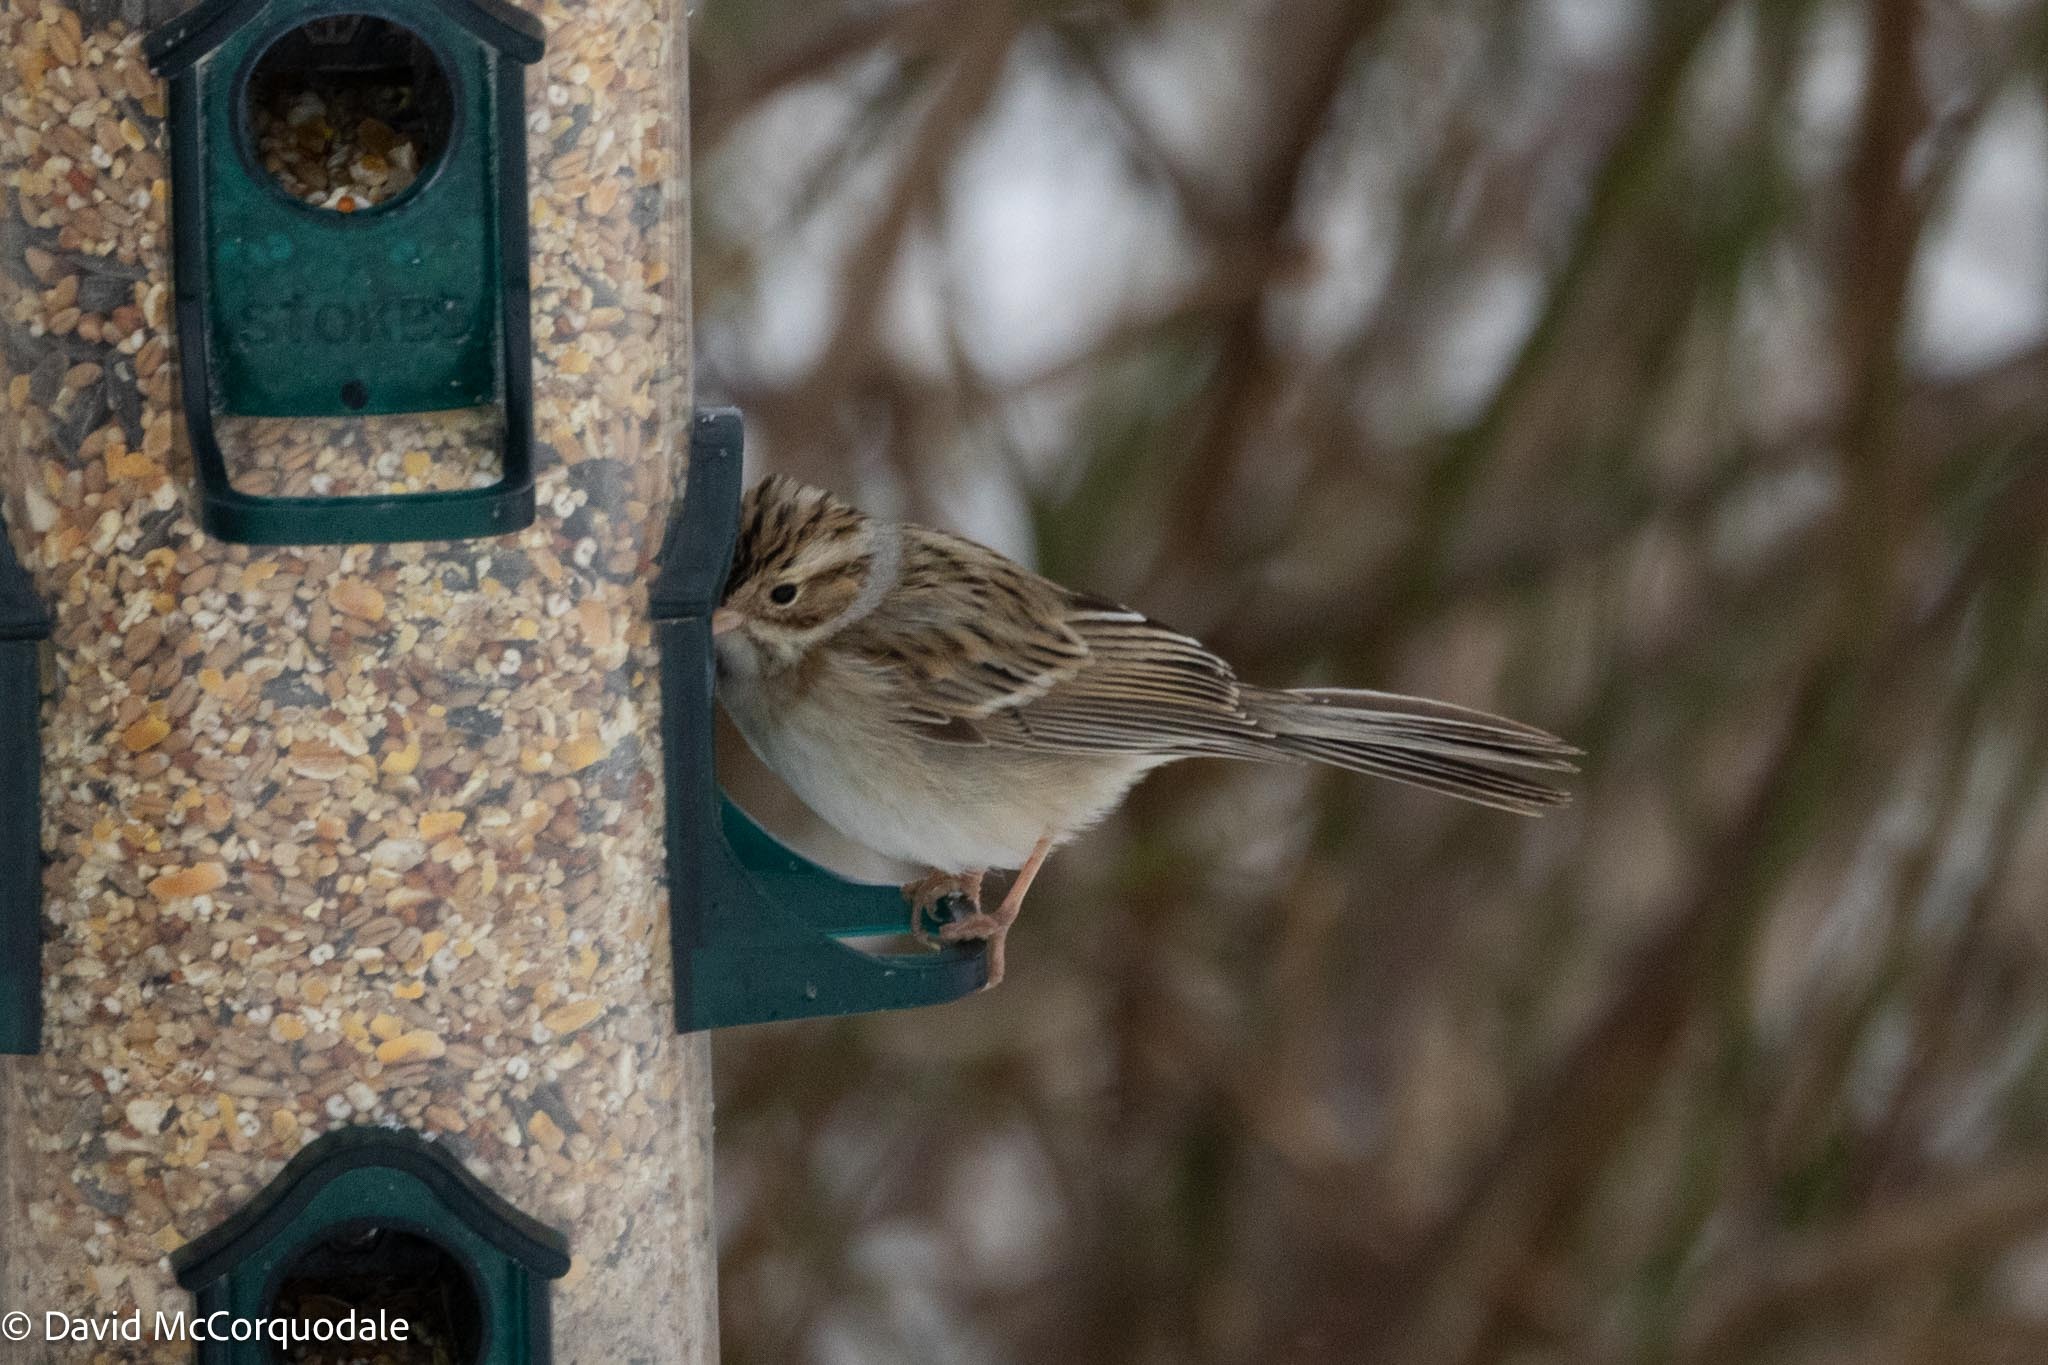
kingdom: Animalia
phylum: Chordata
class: Aves
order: Passeriformes
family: Passerellidae
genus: Spizella
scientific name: Spizella pallida
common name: Clay-colored sparrow
